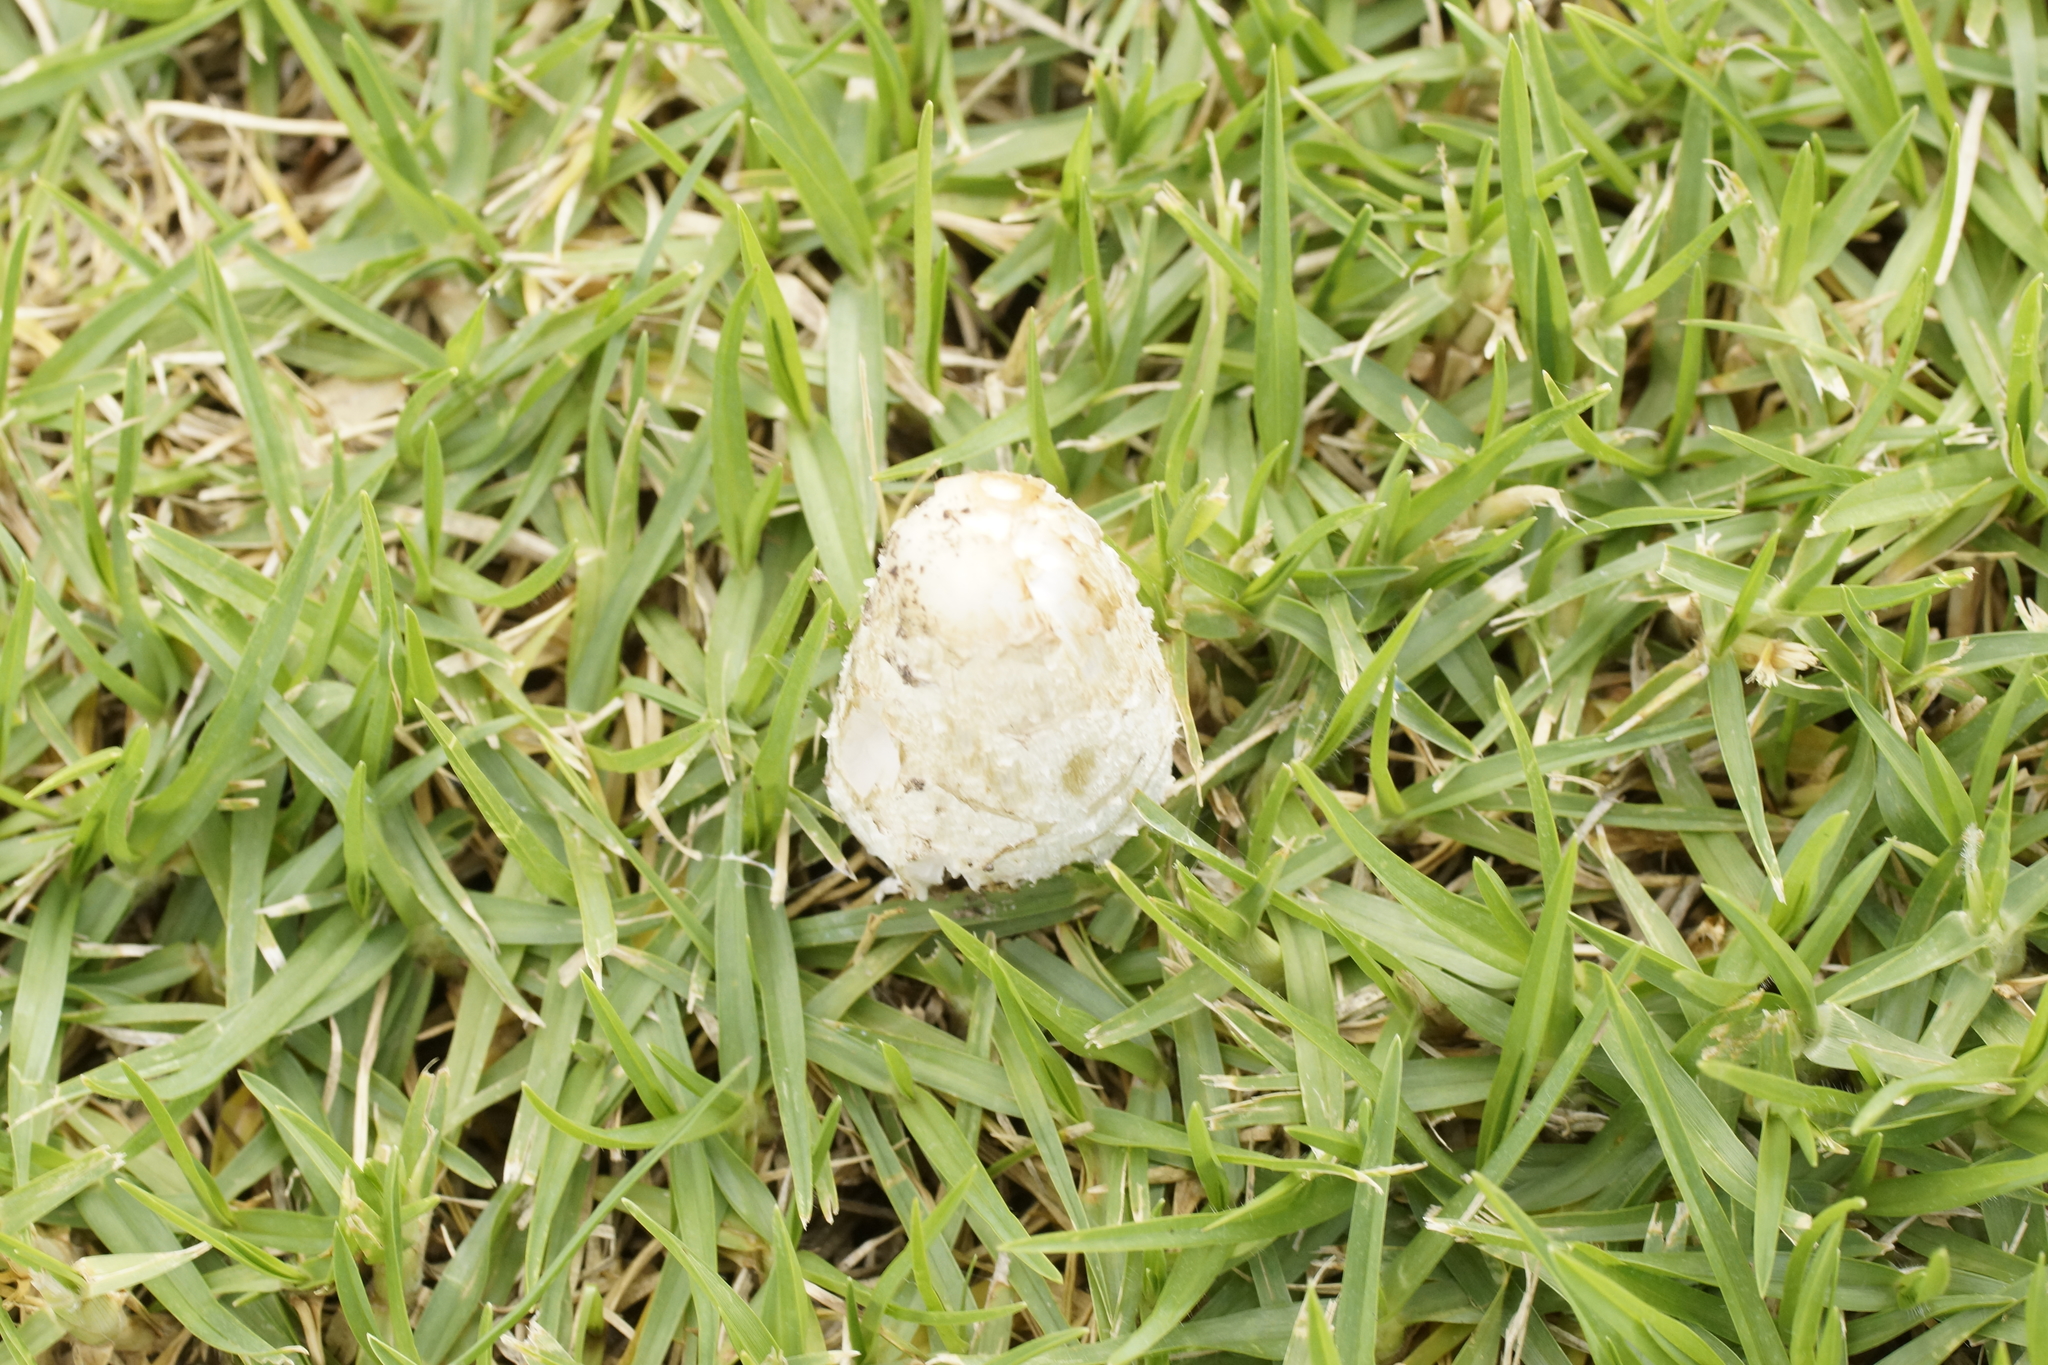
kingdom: Fungi
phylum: Basidiomycota
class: Agaricomycetes
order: Agaricales
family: Agaricaceae
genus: Coprinus
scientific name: Coprinus comatus
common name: Lawyer's wig
